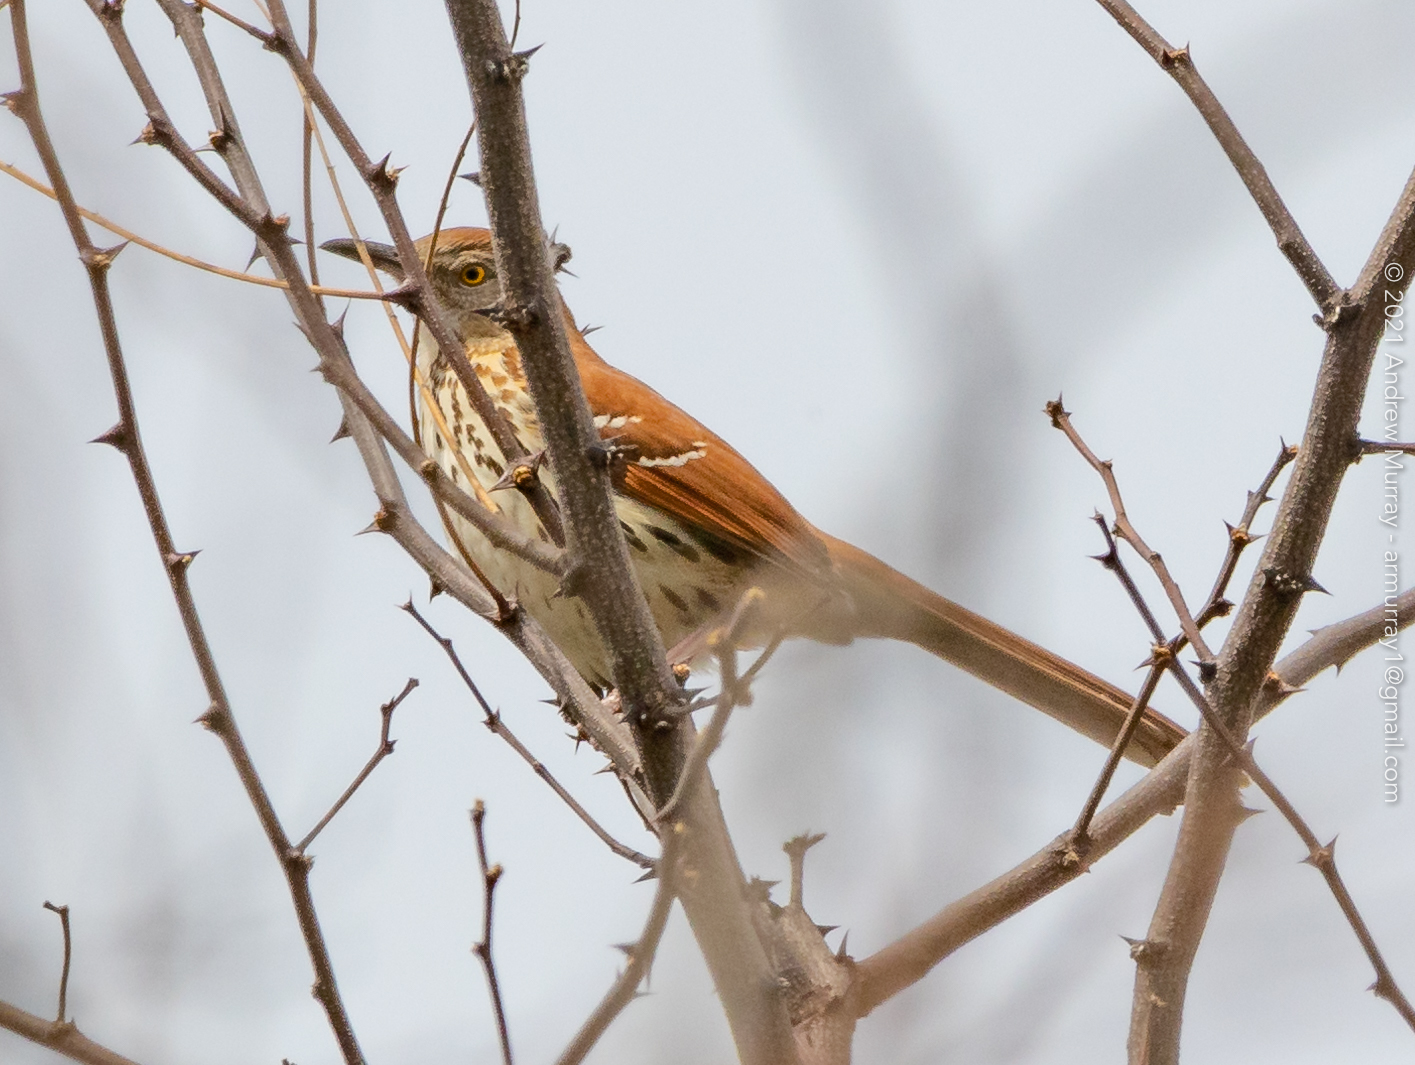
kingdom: Animalia
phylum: Chordata
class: Aves
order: Passeriformes
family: Mimidae
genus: Toxostoma
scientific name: Toxostoma rufum
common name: Brown thrasher
